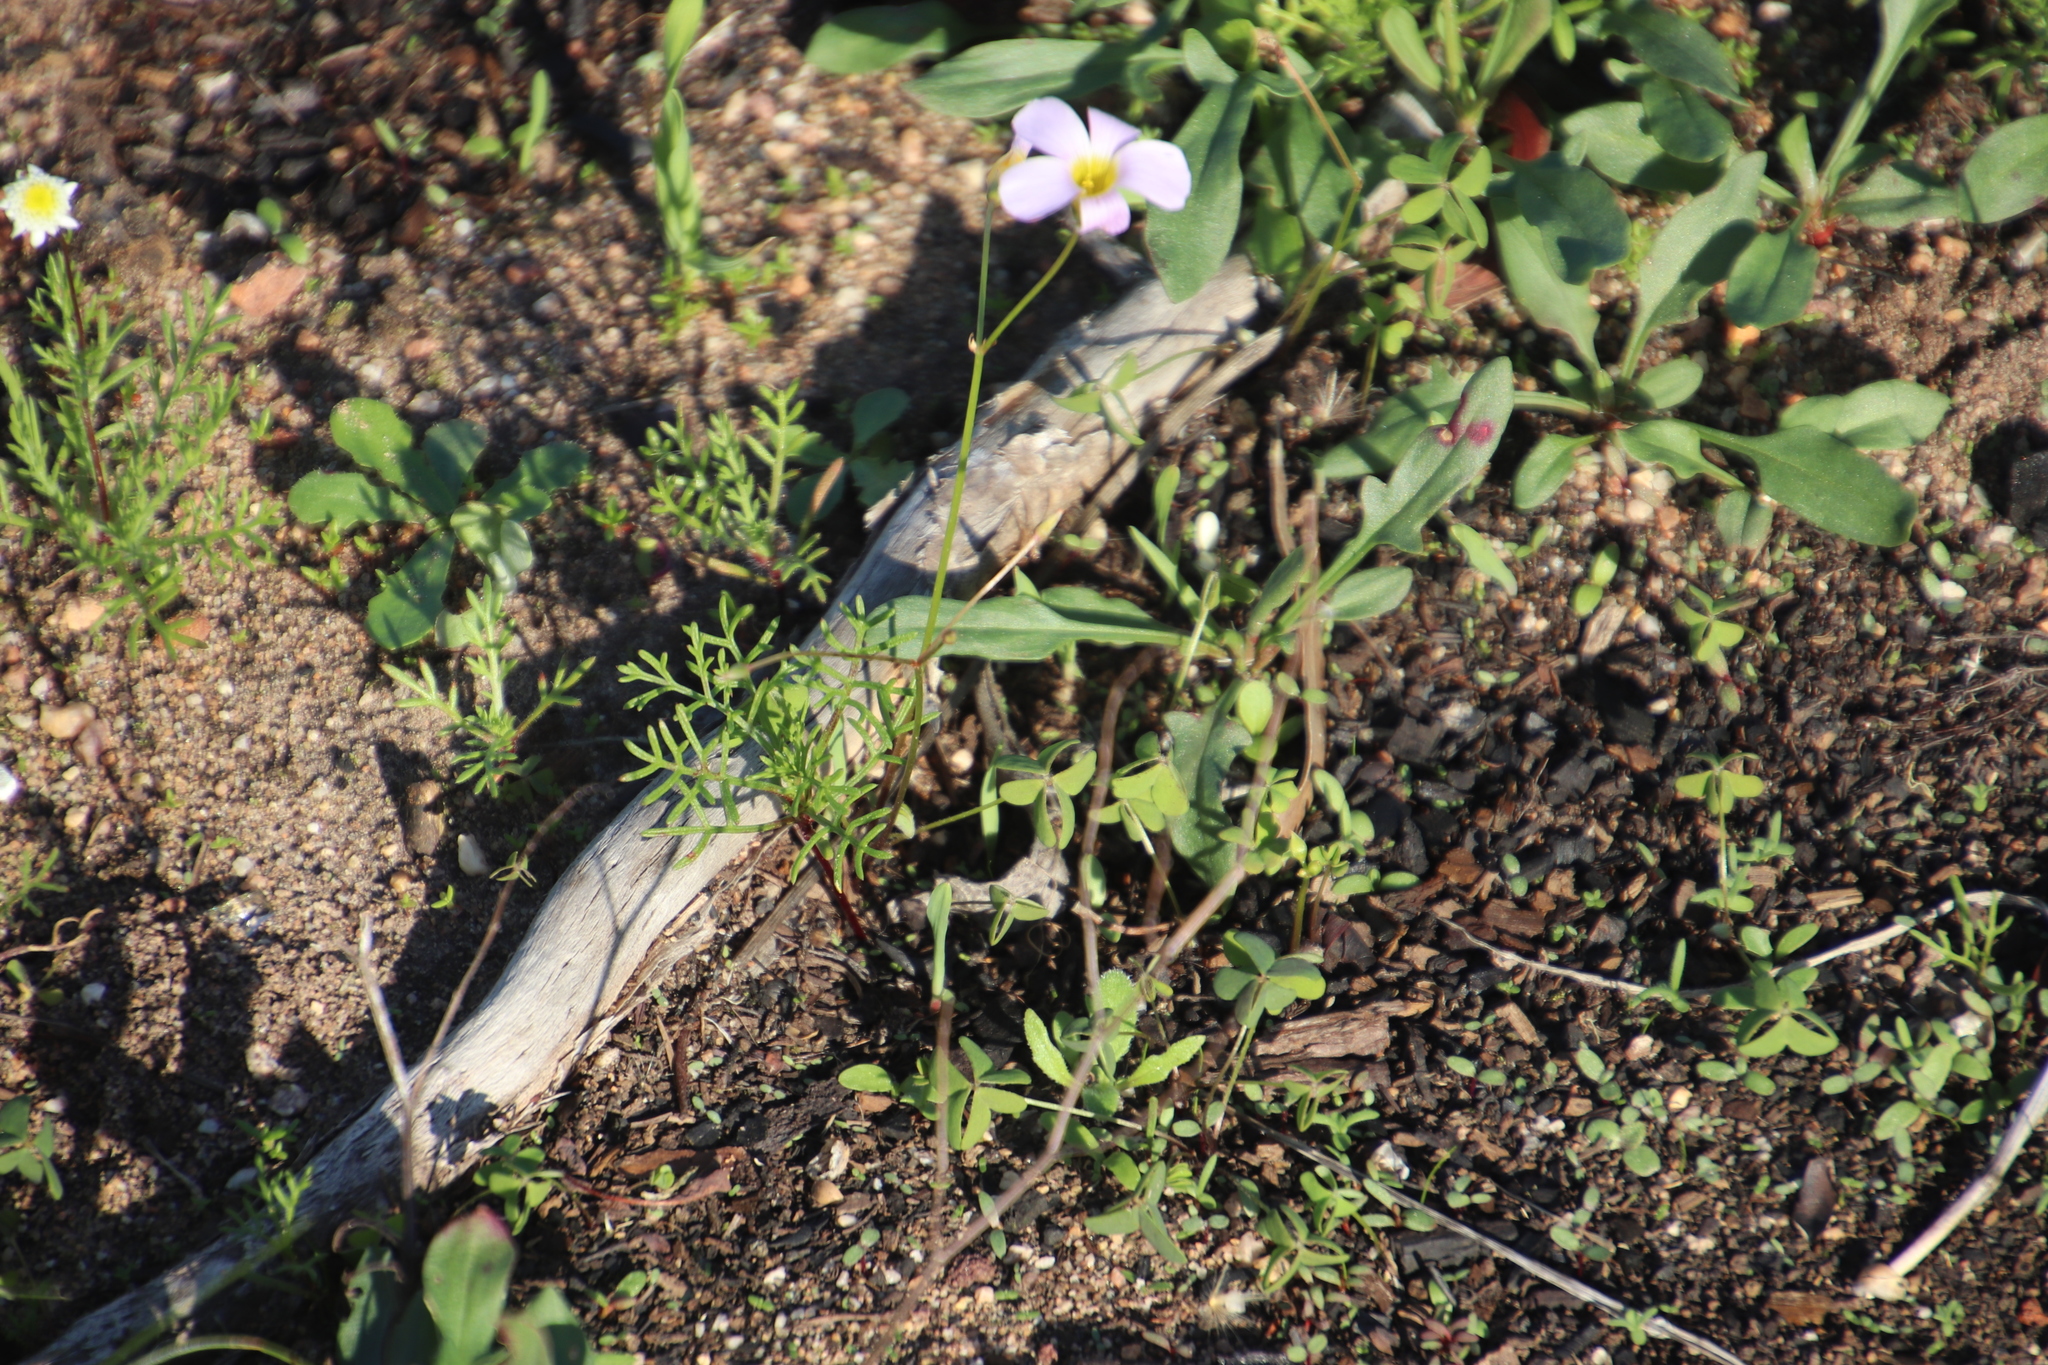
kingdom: Plantae
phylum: Tracheophyta
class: Magnoliopsida
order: Oxalidales
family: Oxalidaceae
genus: Oxalis
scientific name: Oxalis caprina
